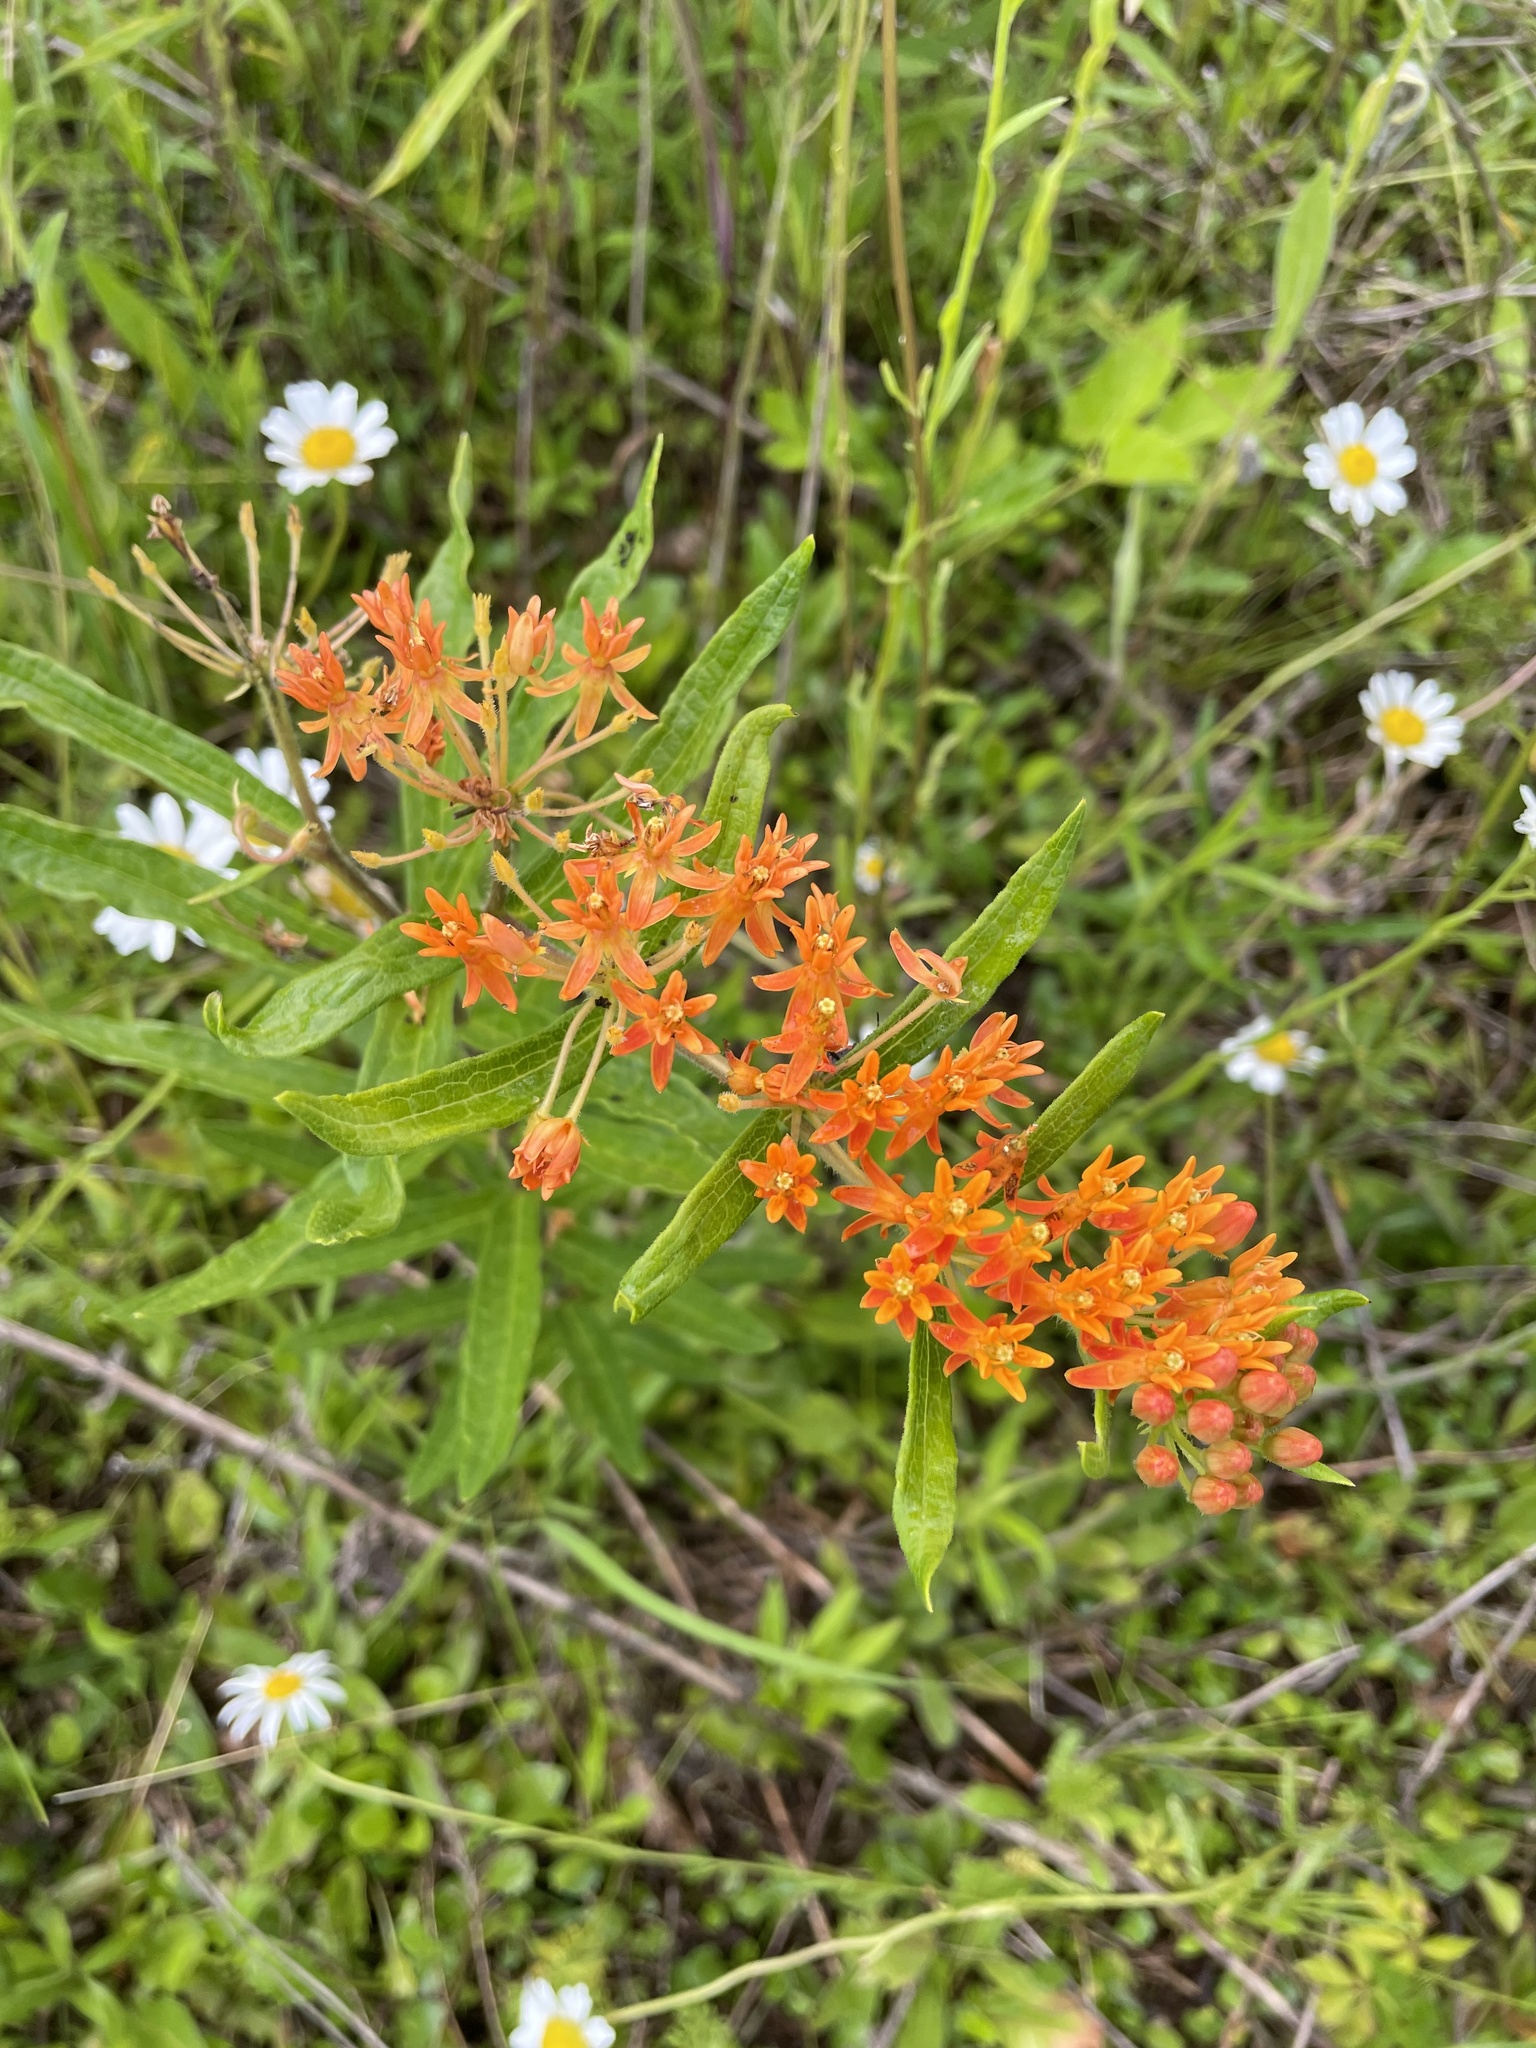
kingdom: Plantae
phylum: Tracheophyta
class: Magnoliopsida
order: Gentianales
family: Apocynaceae
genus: Asclepias
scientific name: Asclepias tuberosa
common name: Butterfly milkweed
